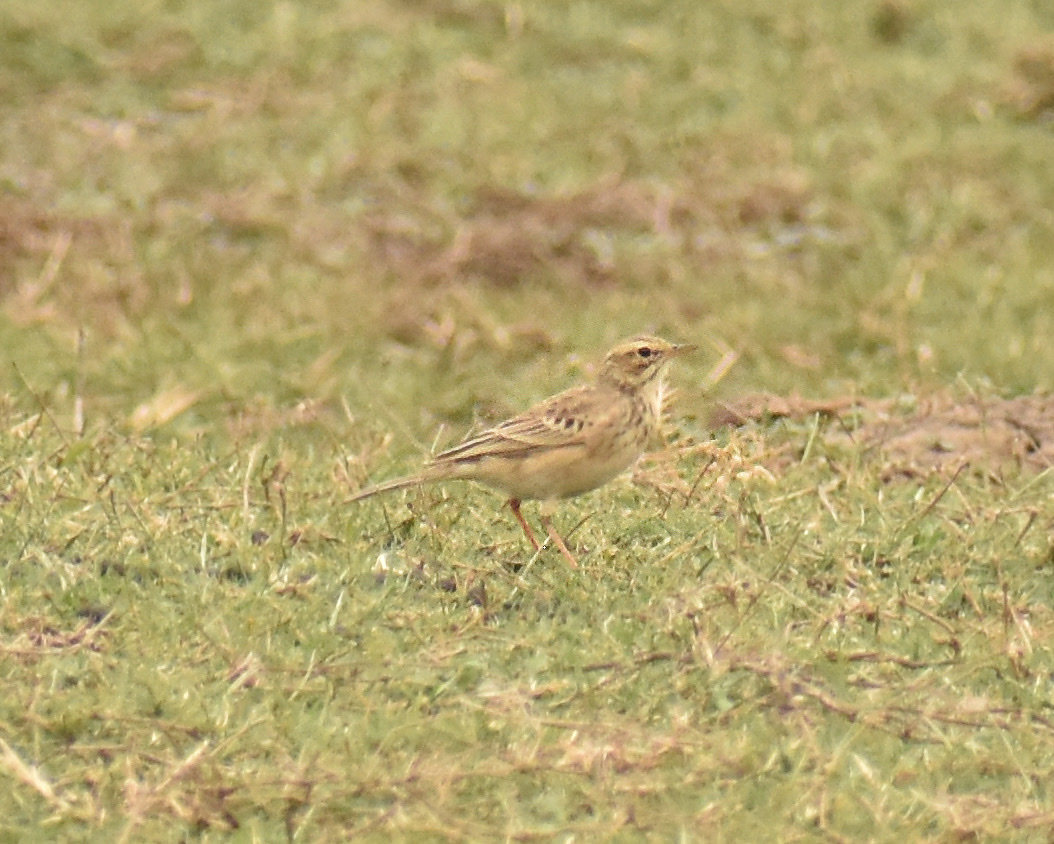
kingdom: Animalia
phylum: Chordata
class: Aves
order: Passeriformes
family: Motacillidae
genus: Anthus
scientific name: Anthus cinnamomeus
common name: African pipit
